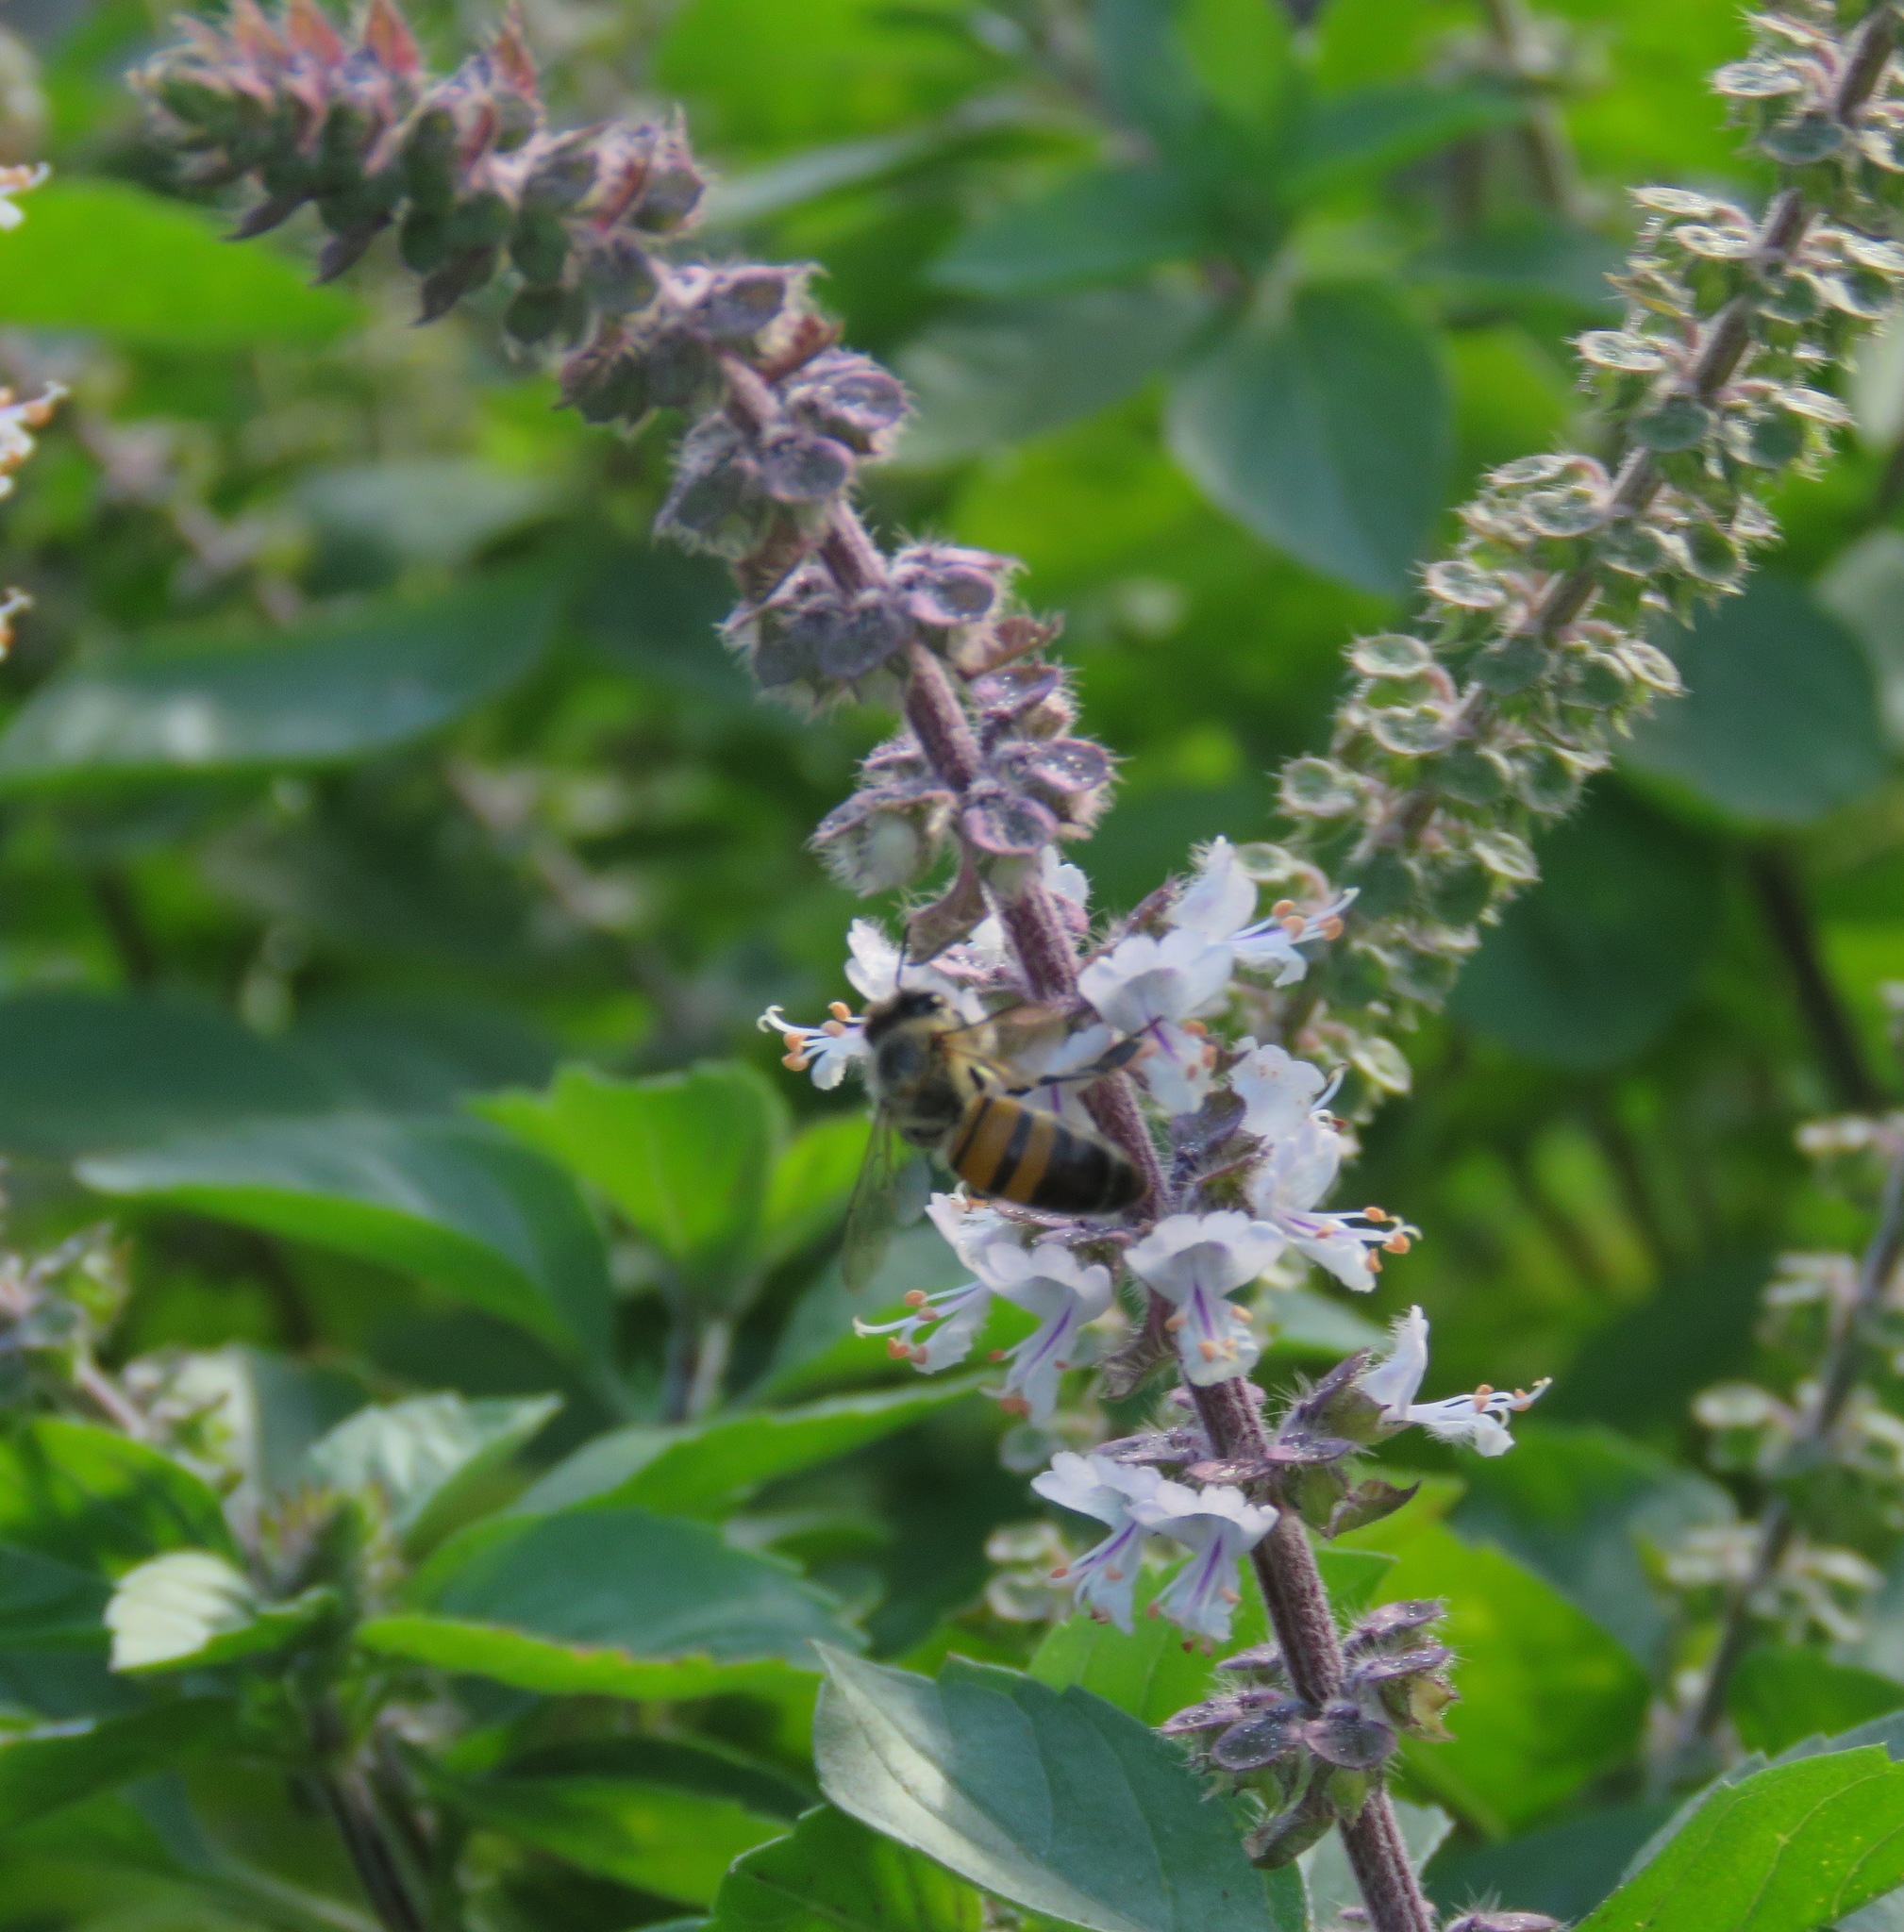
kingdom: Animalia
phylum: Arthropoda
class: Insecta
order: Hymenoptera
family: Apidae
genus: Apis
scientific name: Apis mellifera
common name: Honey bee
